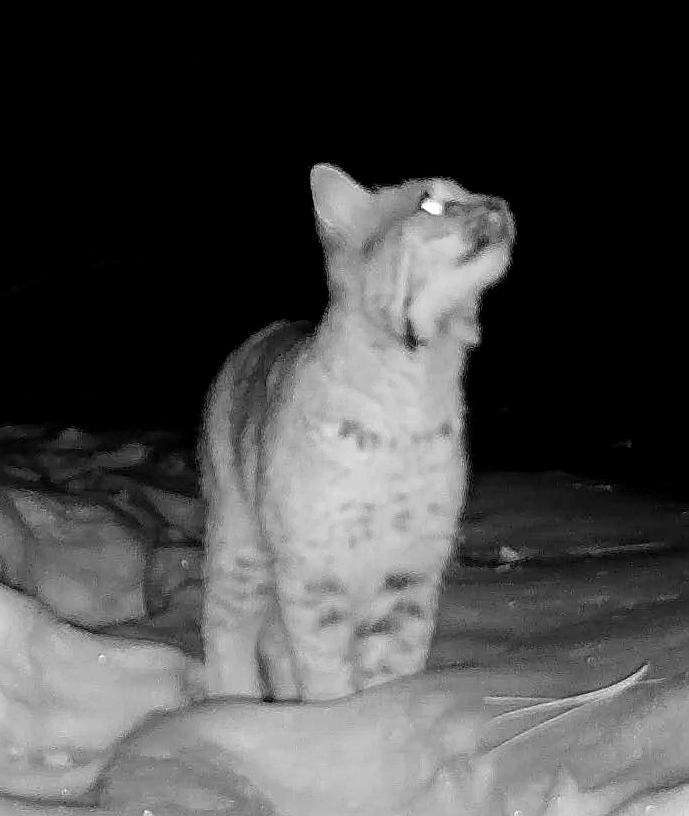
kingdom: Animalia
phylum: Chordata
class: Mammalia
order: Carnivora
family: Felidae
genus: Lynx
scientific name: Lynx rufus
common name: Bobcat
